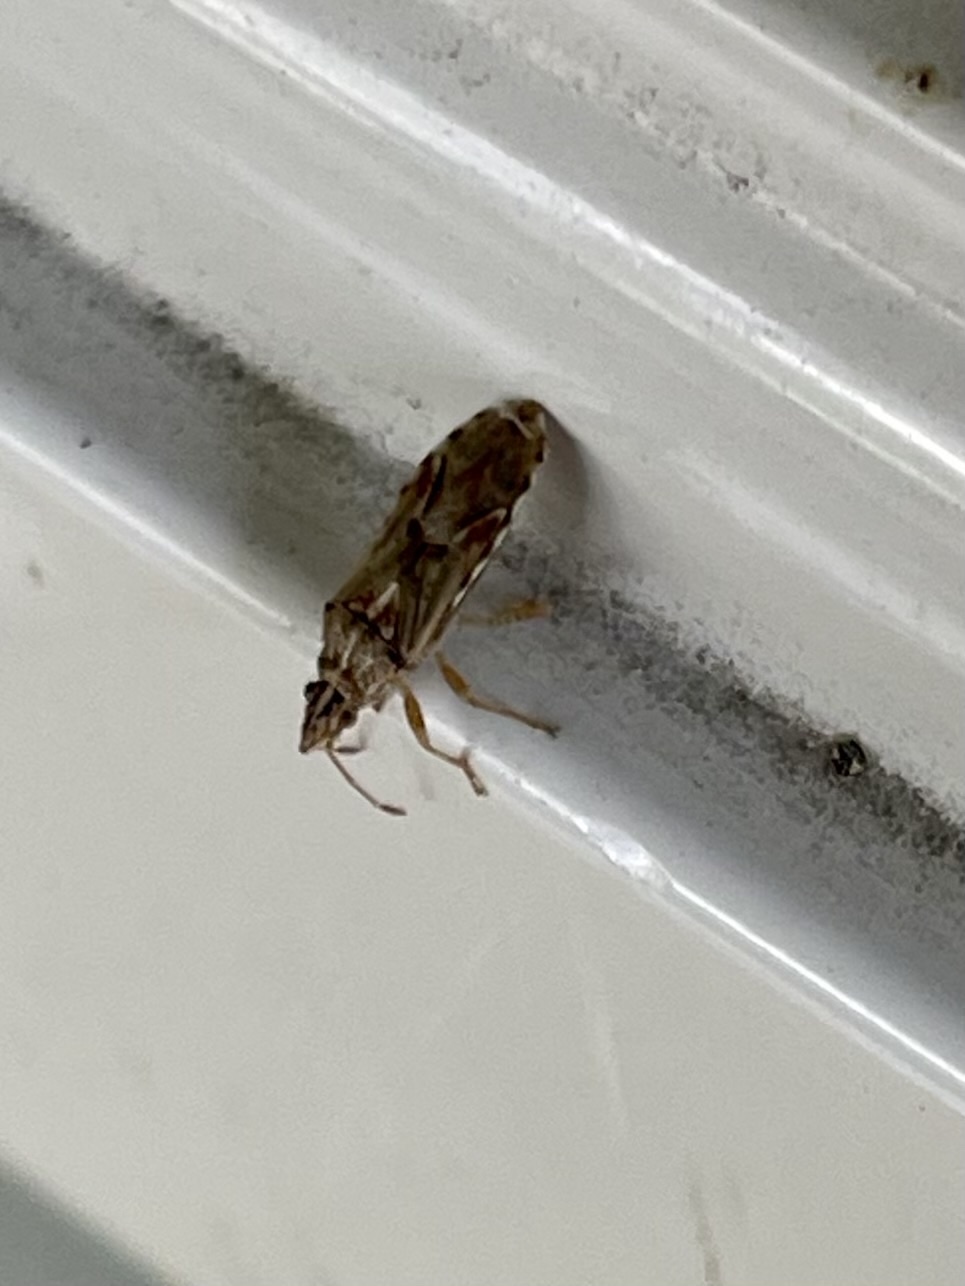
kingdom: Animalia
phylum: Arthropoda
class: Insecta
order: Hemiptera
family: Lygaeidae
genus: Belonochilus
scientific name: Belonochilus numenius
